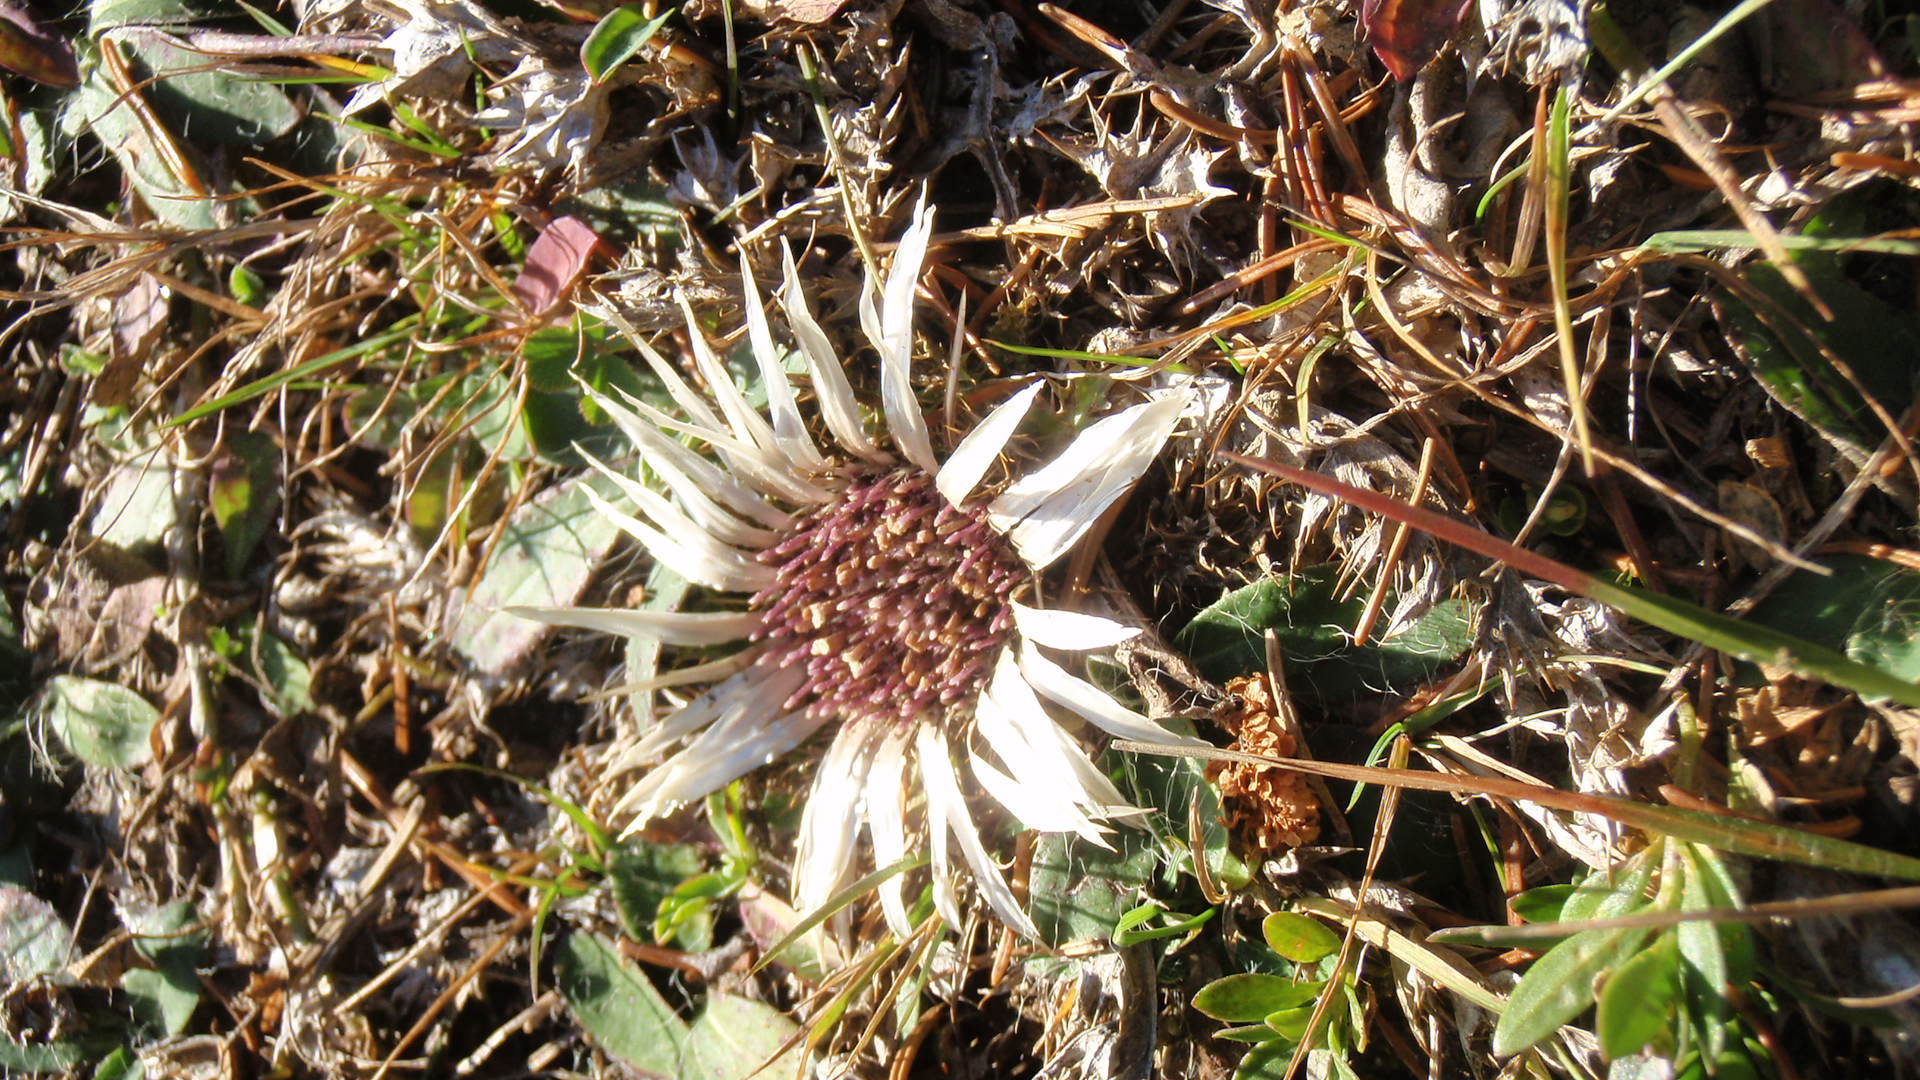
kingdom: Plantae
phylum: Tracheophyta
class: Magnoliopsida
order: Asterales
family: Asteraceae
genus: Carlina
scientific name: Carlina acaulis
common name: Stemless carline thistle
